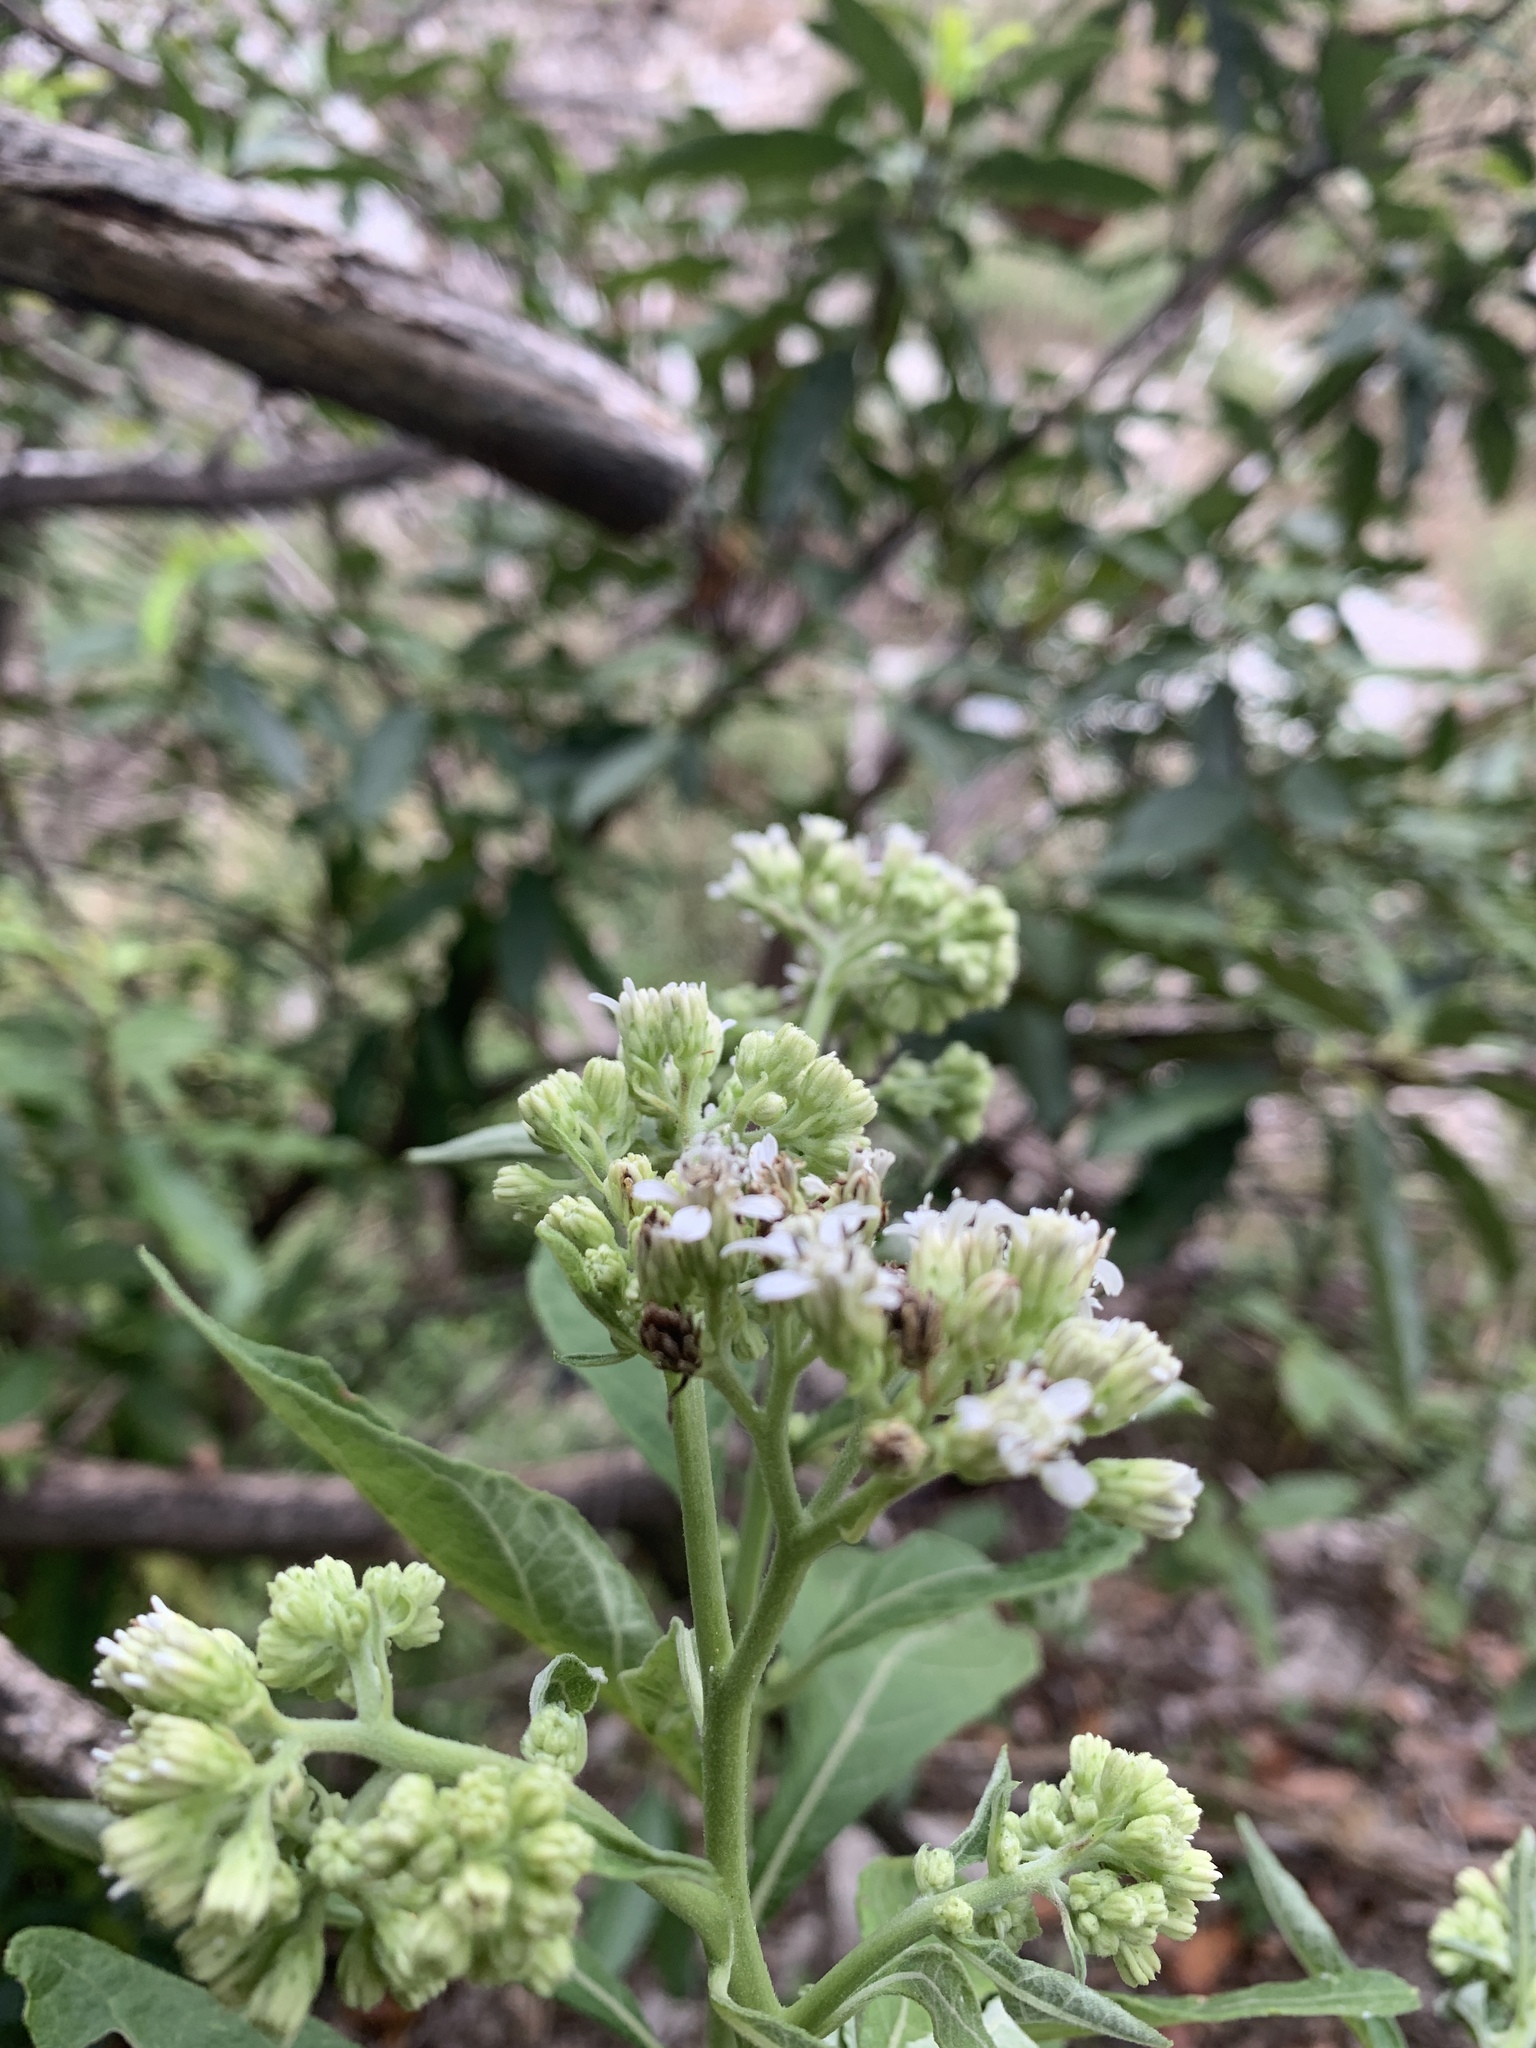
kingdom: Plantae
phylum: Tracheophyta
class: Magnoliopsida
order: Asterales
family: Asteraceae
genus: Verbesina
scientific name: Verbesina virginica
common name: Frostweed
